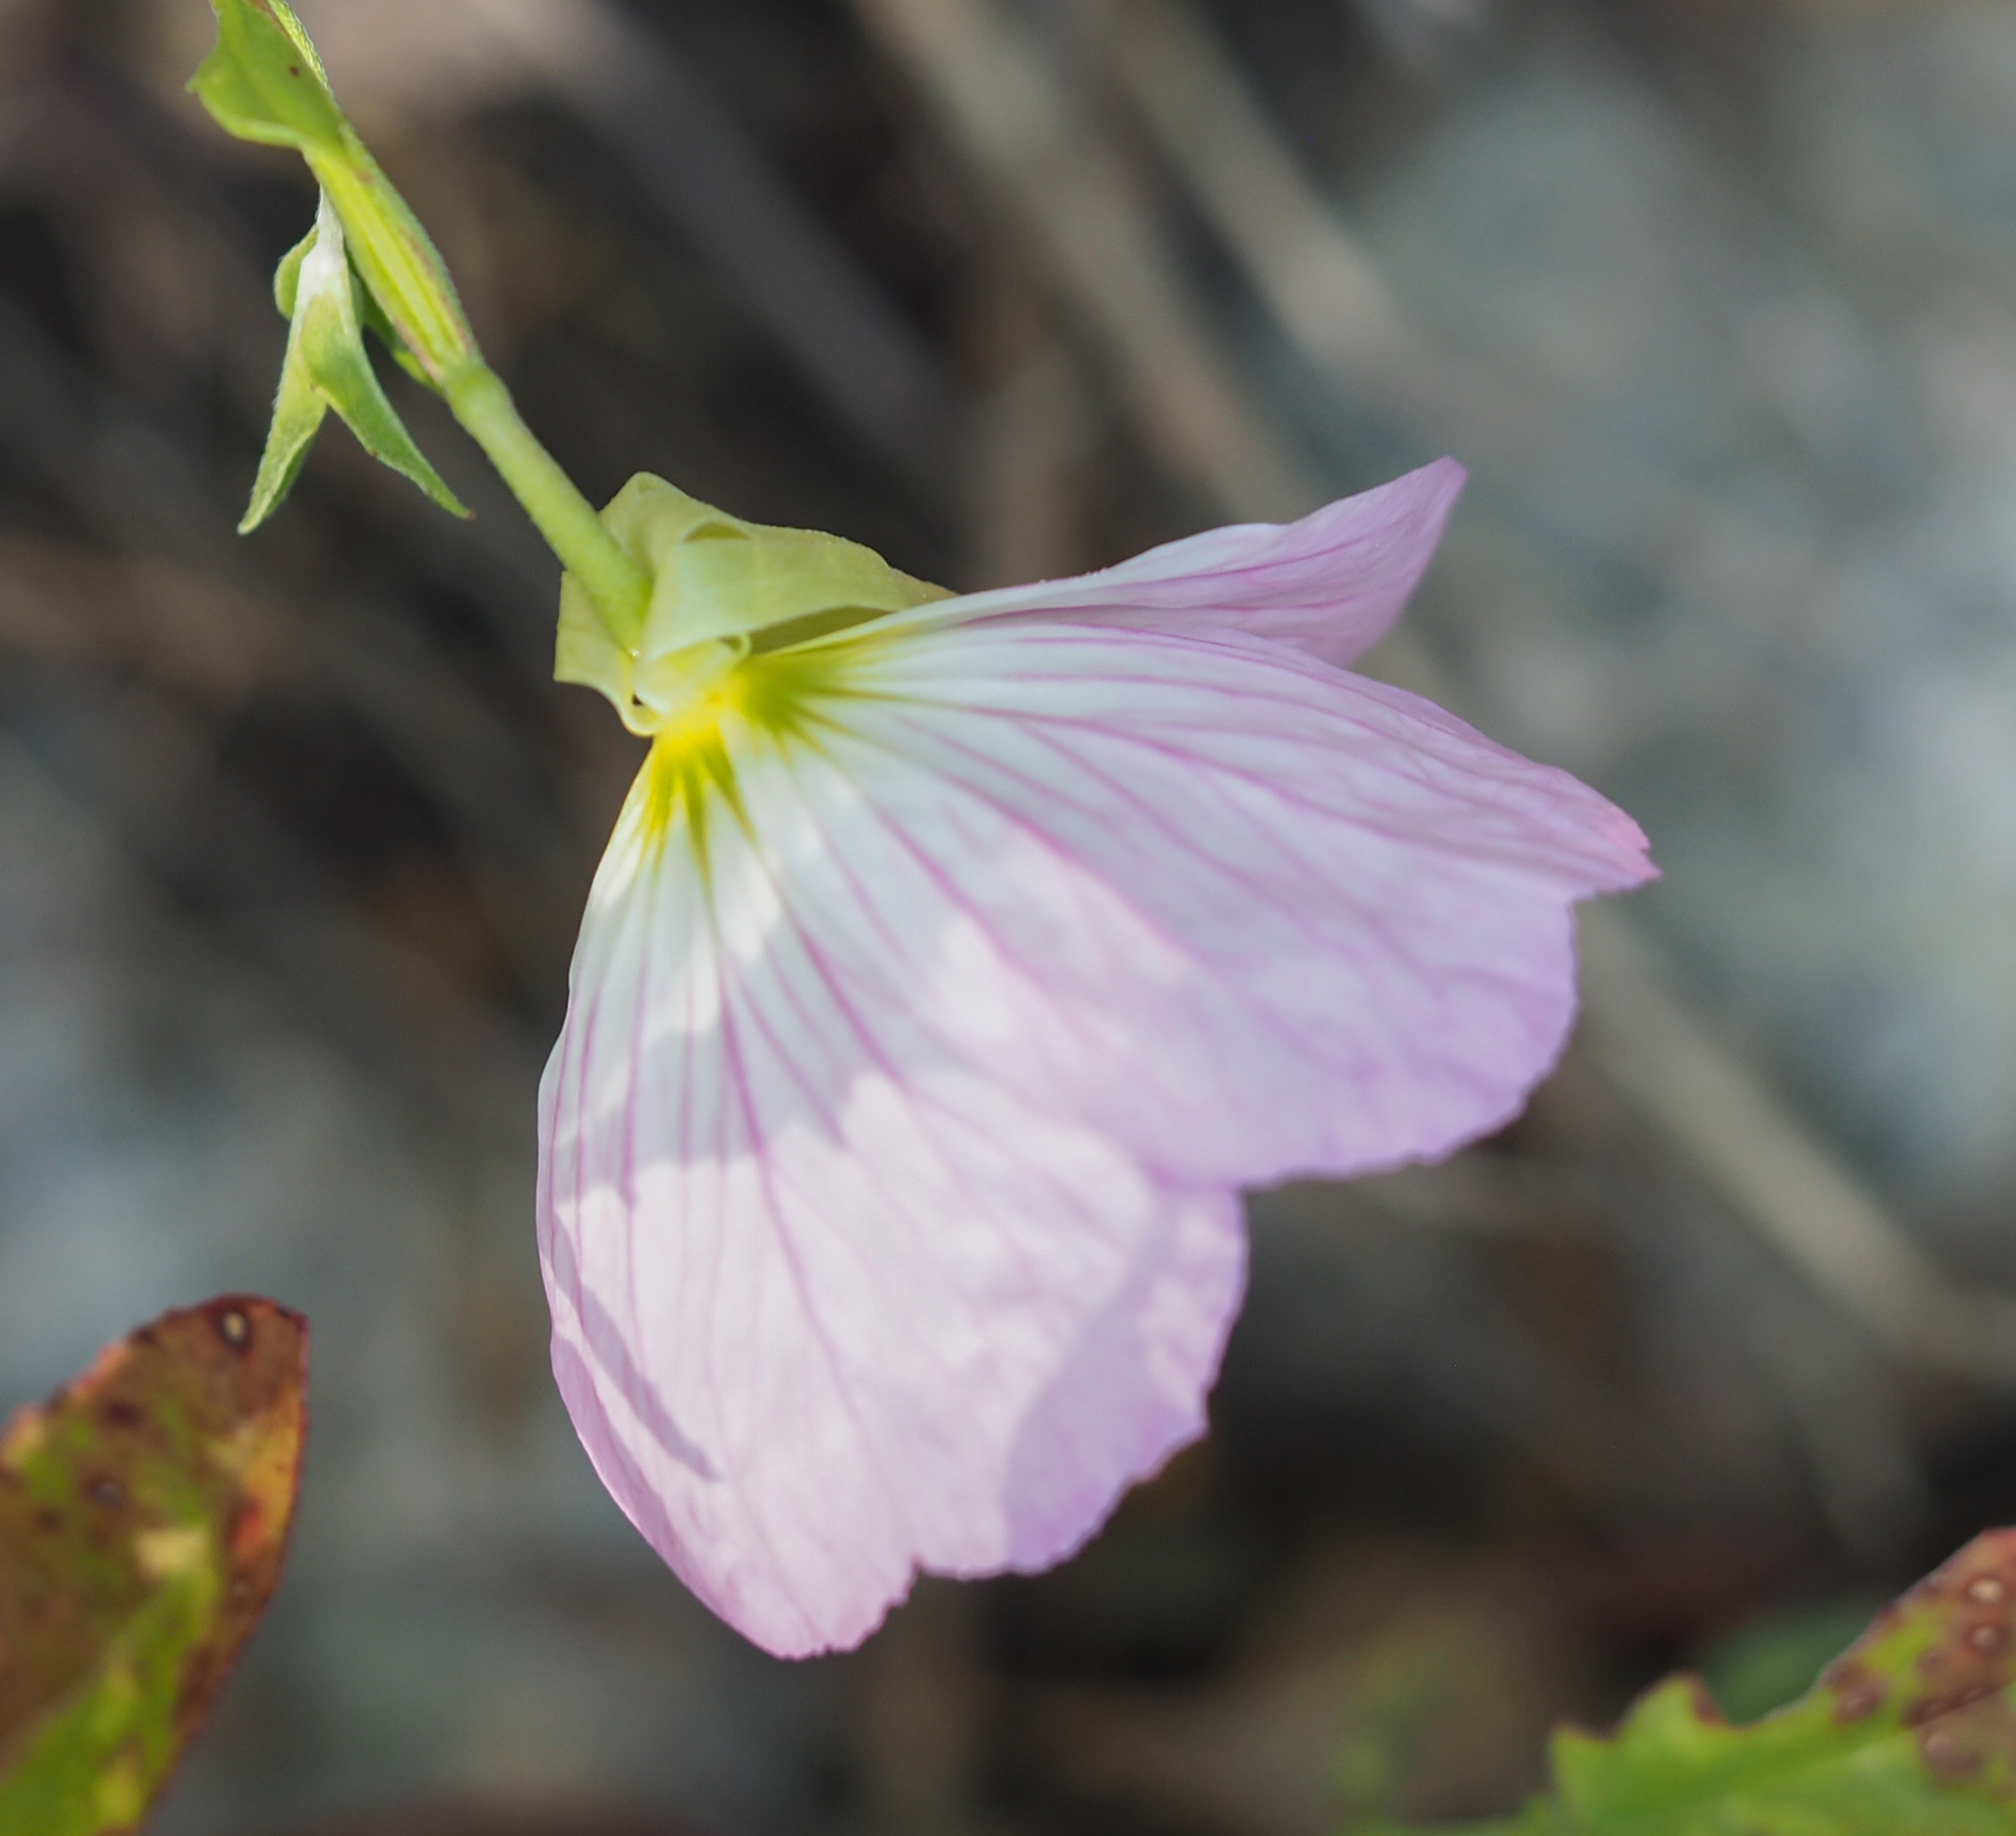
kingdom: Plantae
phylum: Tracheophyta
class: Magnoliopsida
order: Myrtales
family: Onagraceae
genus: Oenothera
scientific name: Oenothera speciosa
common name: White evening-primrose
